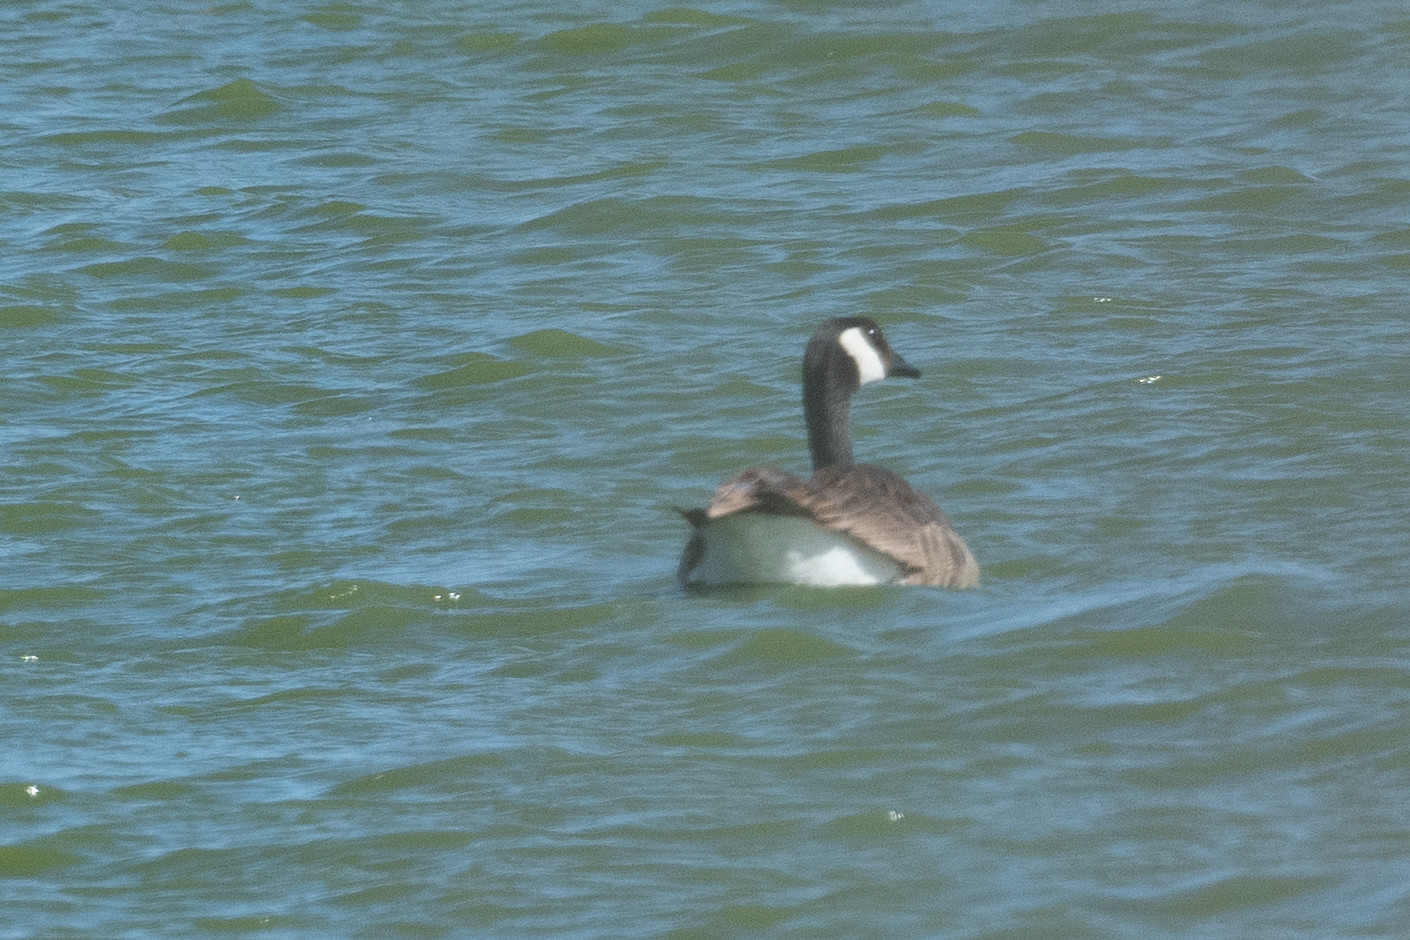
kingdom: Animalia
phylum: Chordata
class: Aves
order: Anseriformes
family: Anatidae
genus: Branta
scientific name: Branta canadensis
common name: Canada goose
